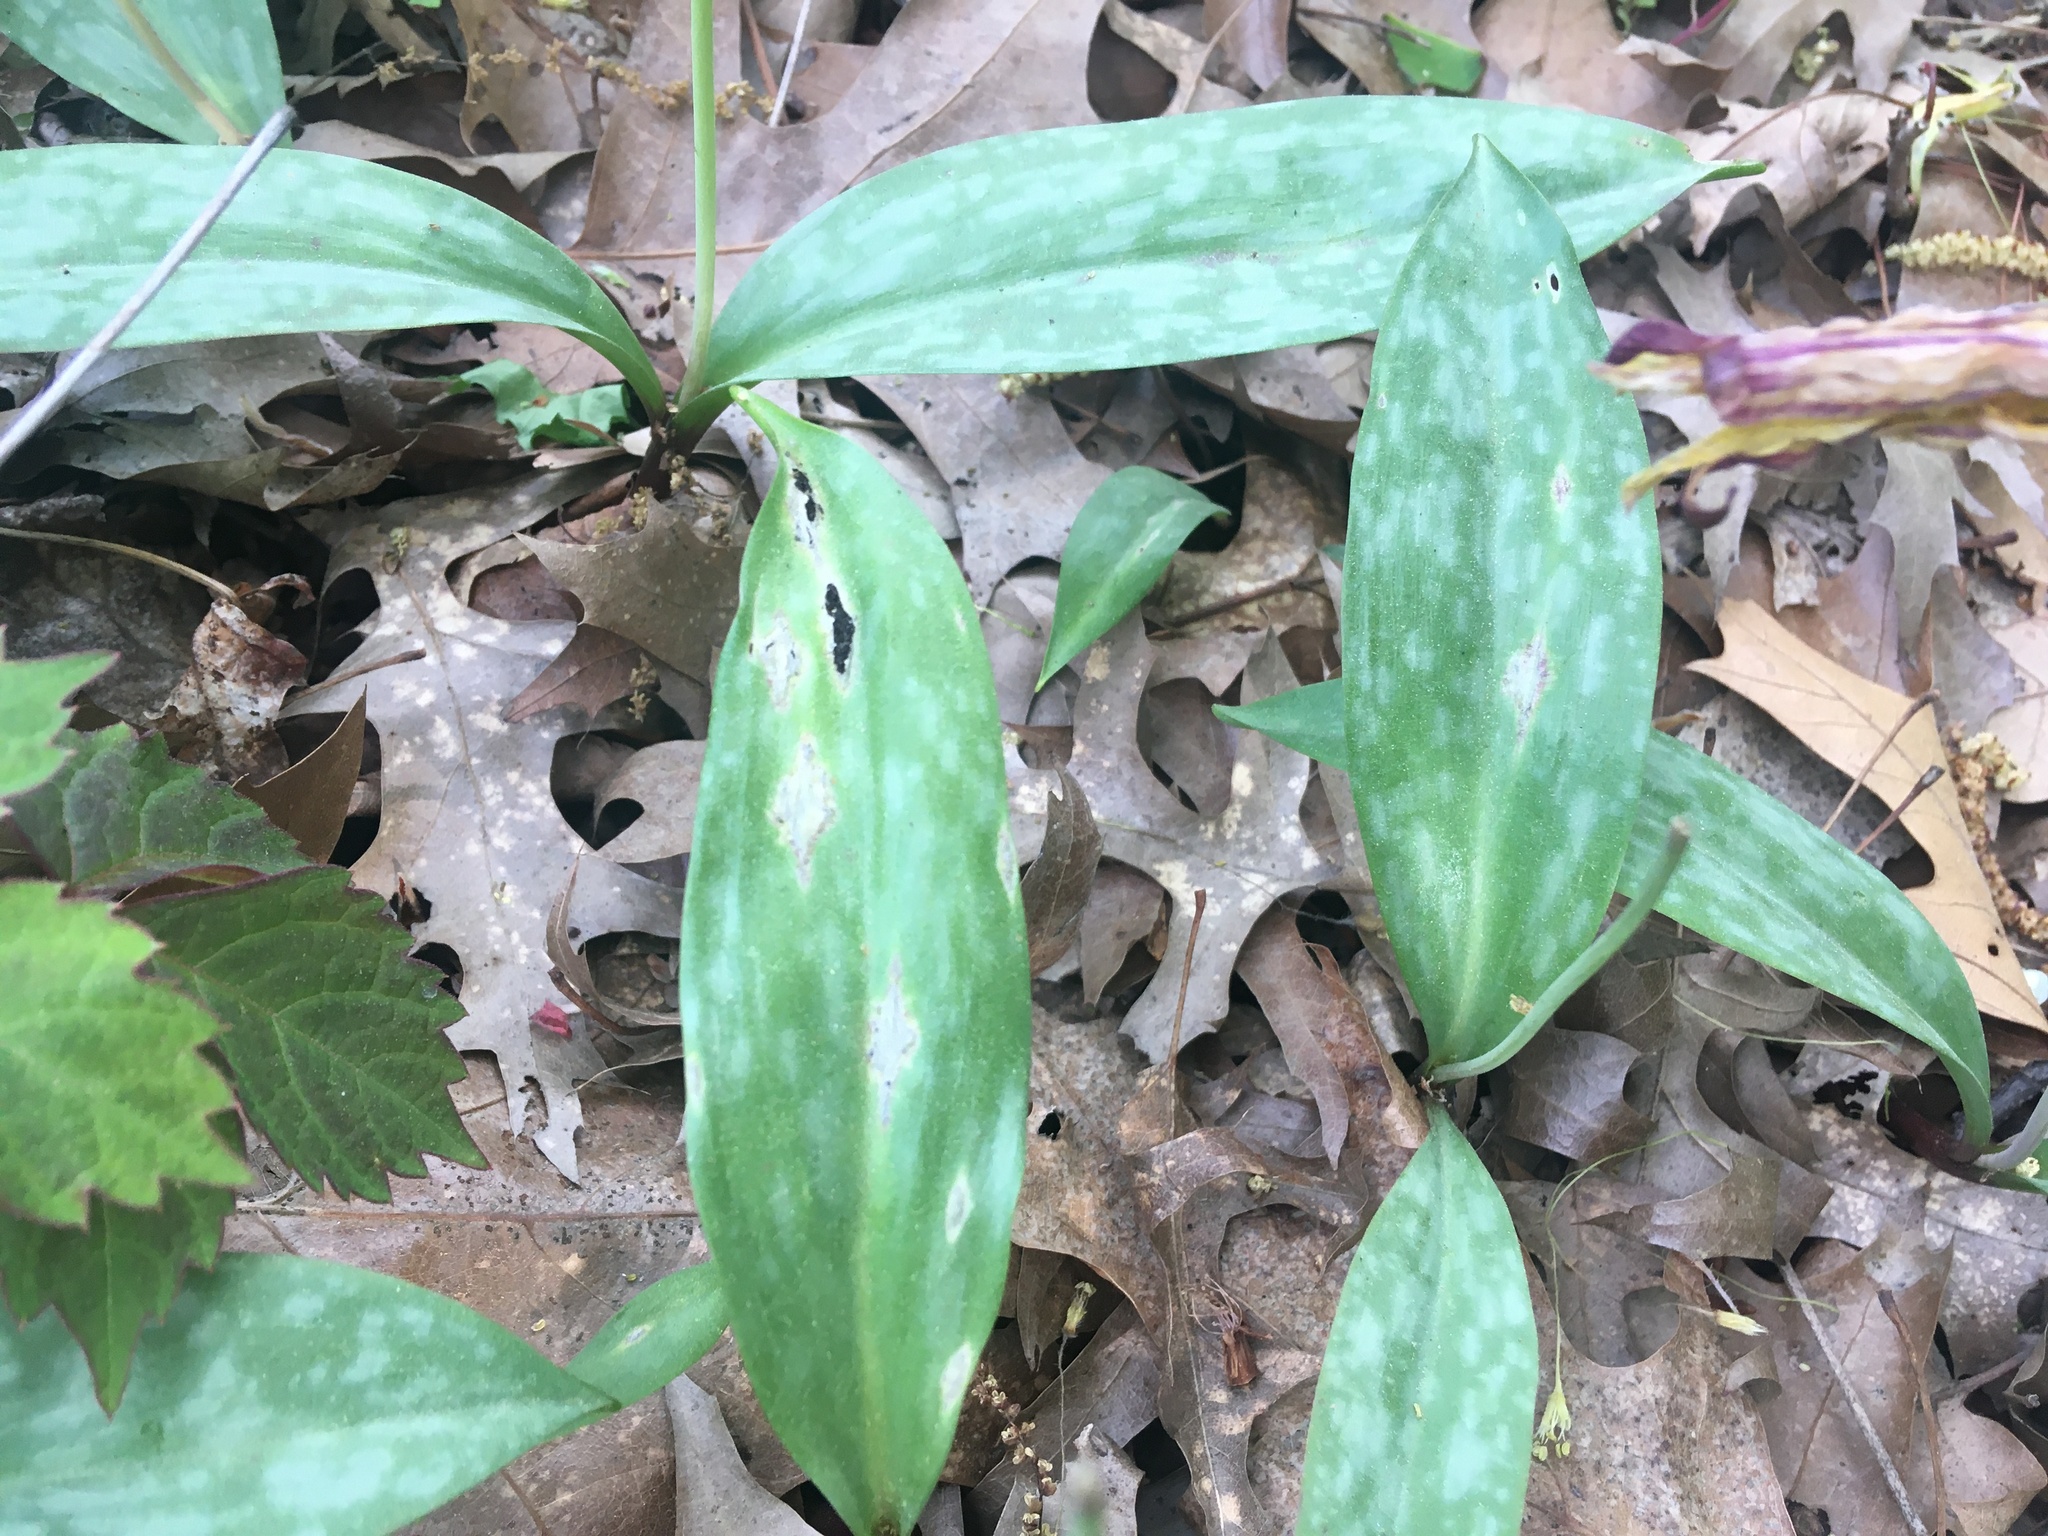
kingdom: Plantae
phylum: Tracheophyta
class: Liliopsida
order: Liliales
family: Liliaceae
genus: Erythronium
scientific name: Erythronium americanum
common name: Yellow adder's-tongue
